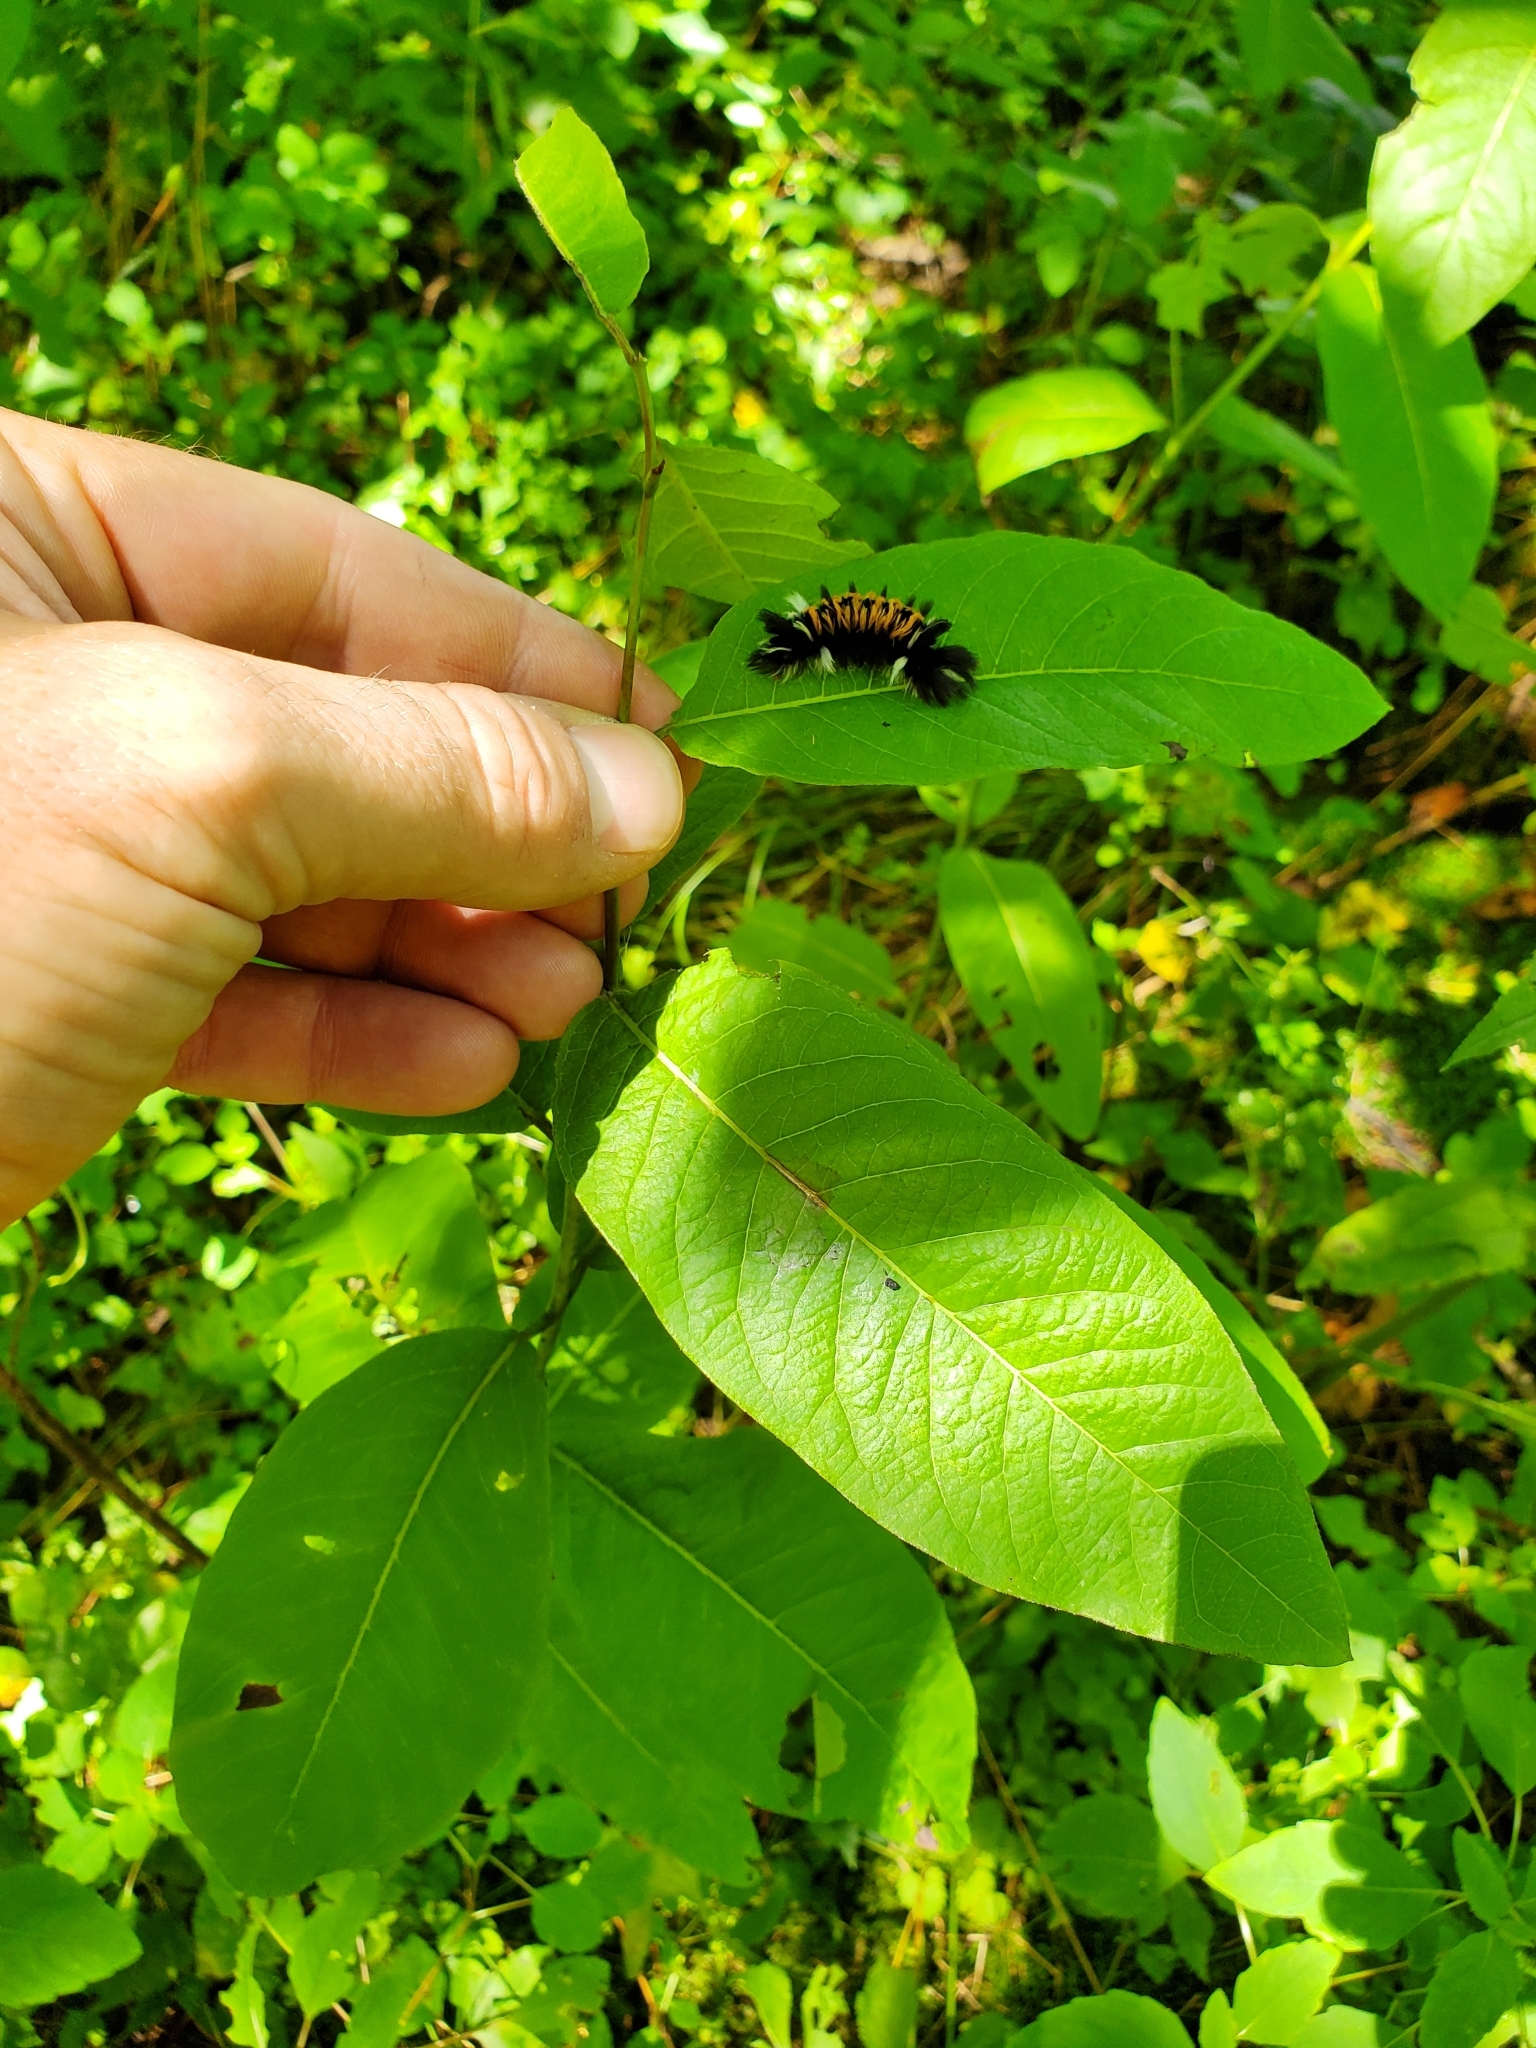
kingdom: Animalia
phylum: Arthropoda
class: Insecta
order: Lepidoptera
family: Erebidae
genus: Euchaetes
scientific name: Euchaetes egle
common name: Milkweed tussock moth
